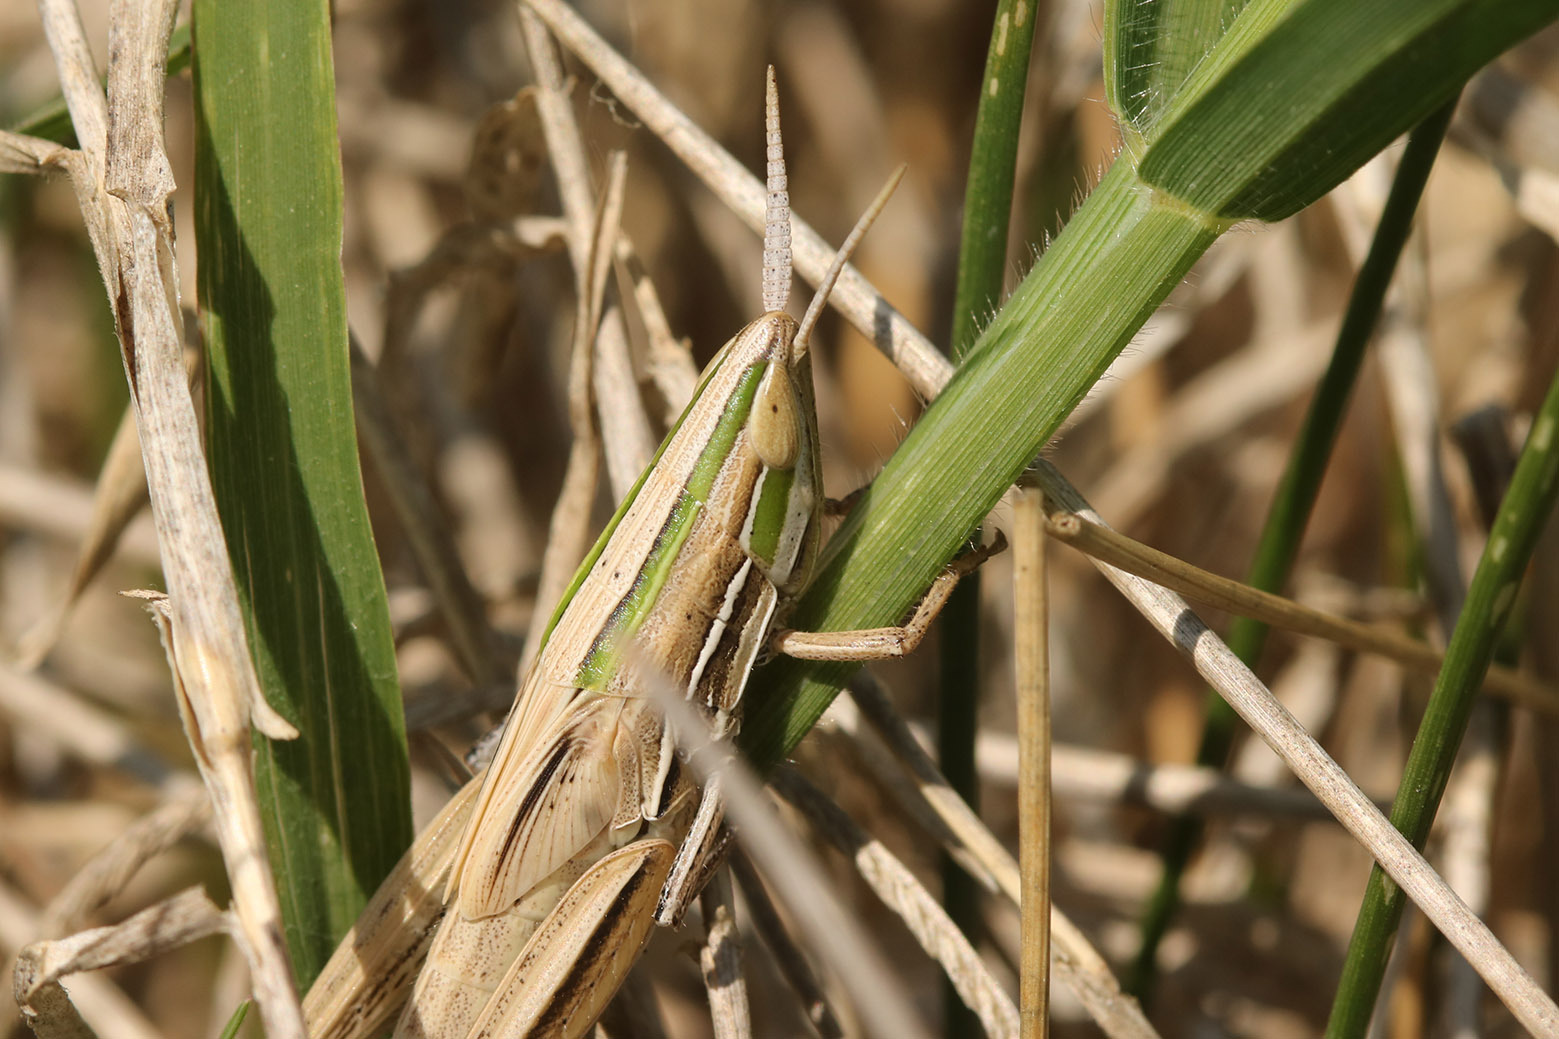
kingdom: Animalia
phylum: Arthropoda
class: Insecta
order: Orthoptera
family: Acrididae
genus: Sinipta
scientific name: Sinipta dalmani
